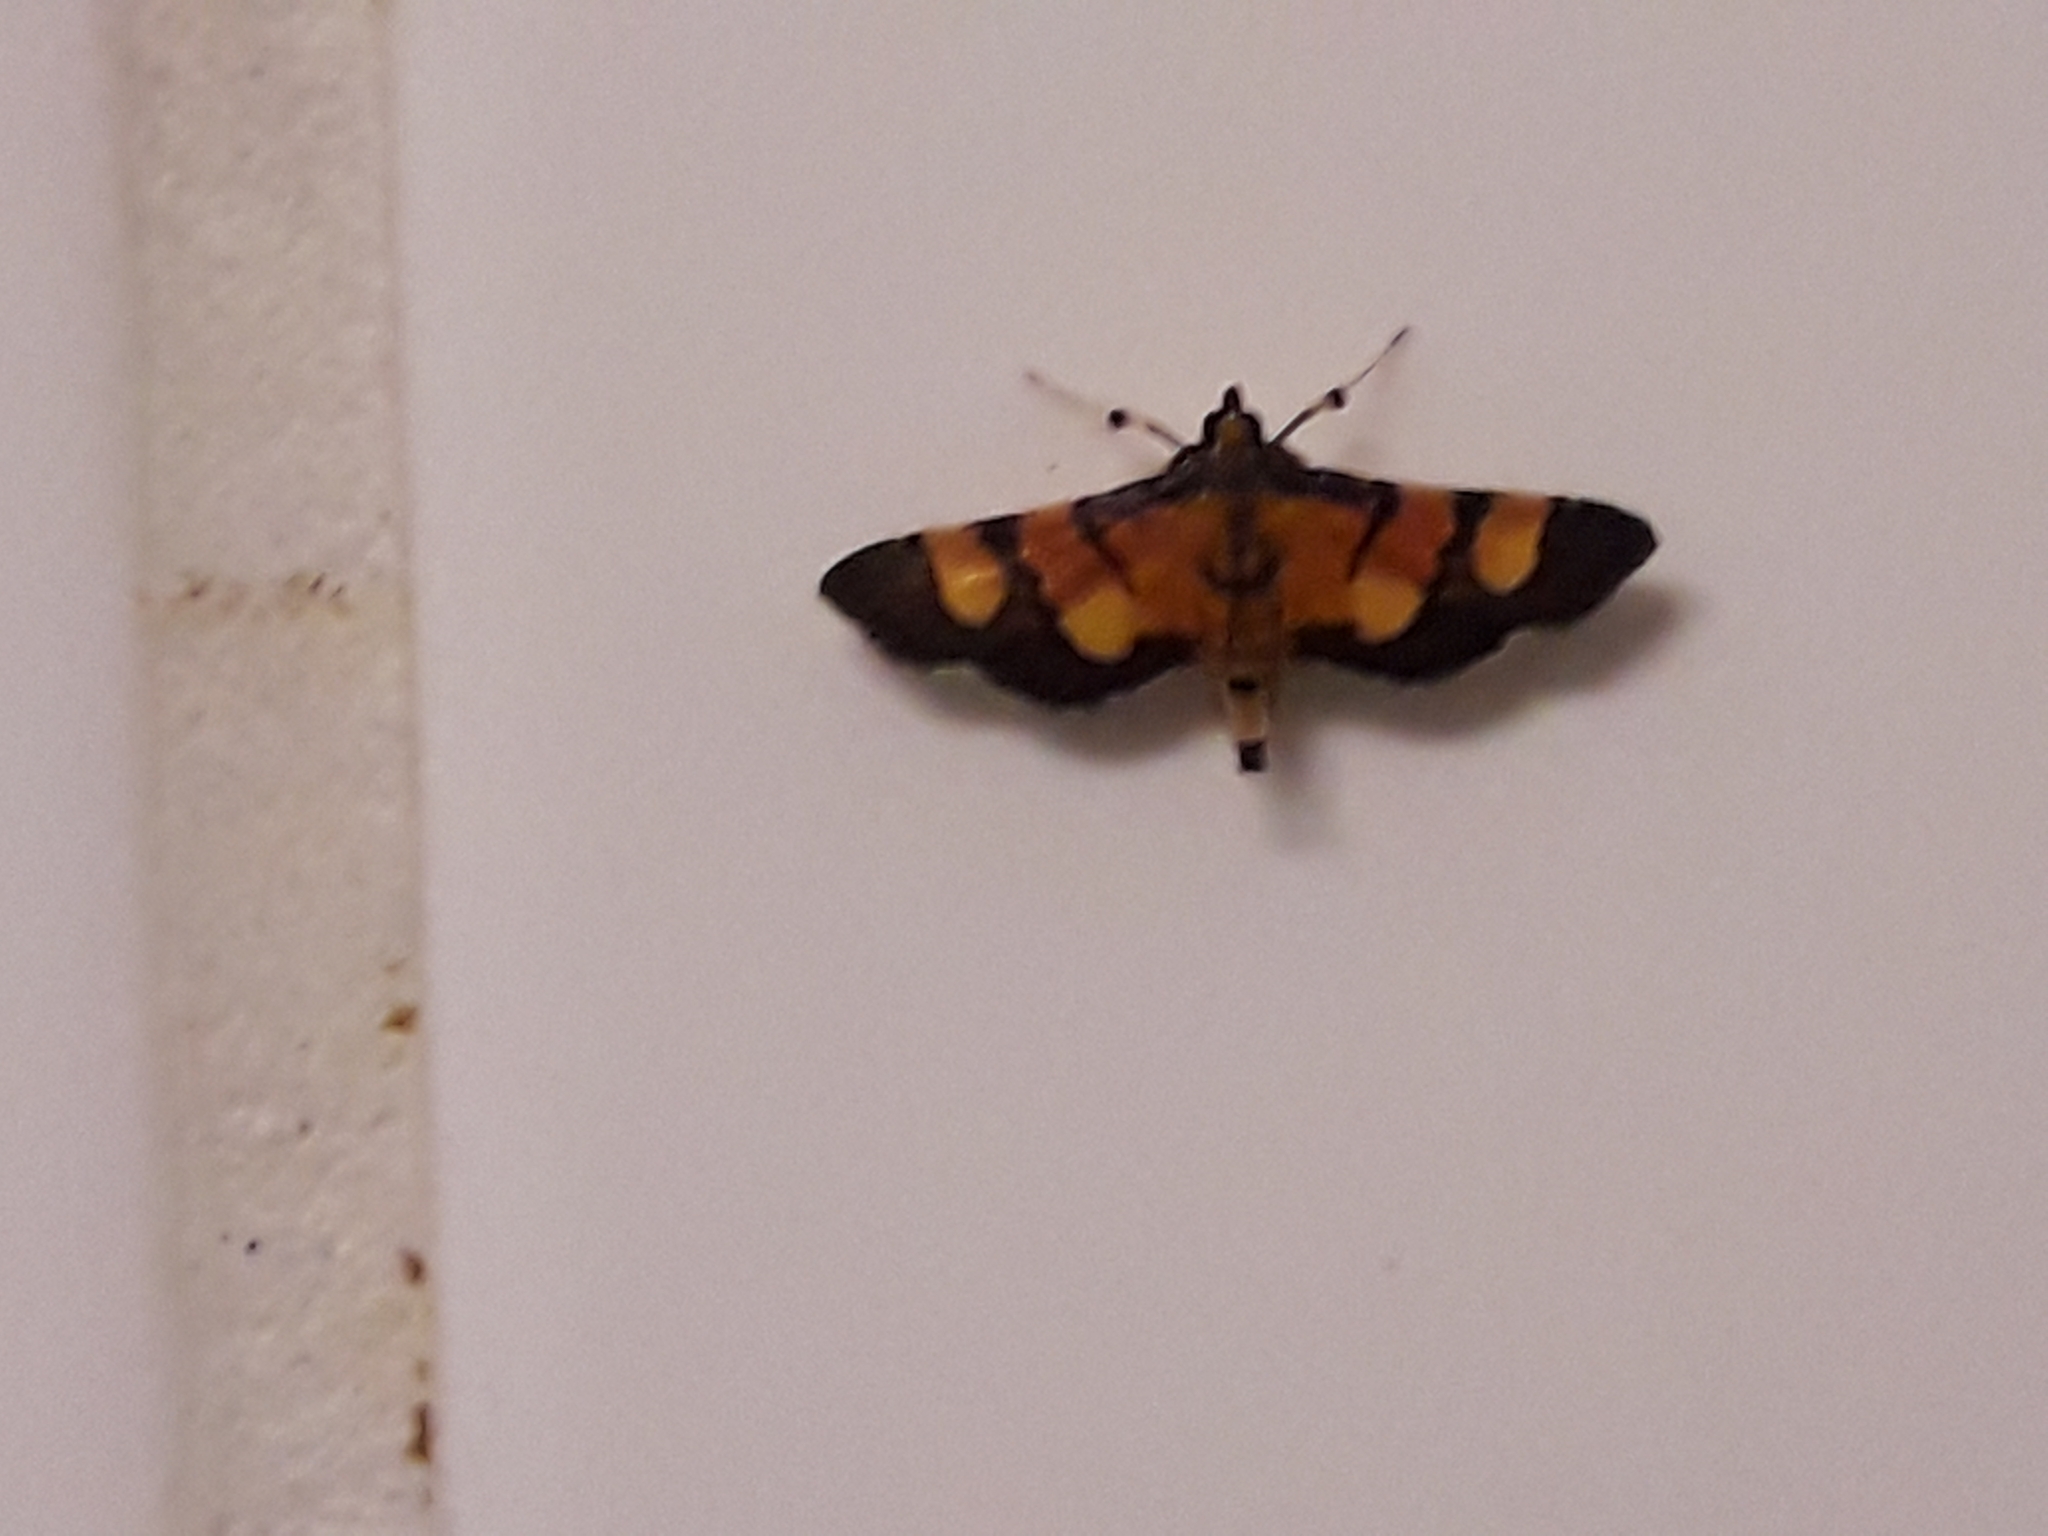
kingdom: Animalia
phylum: Arthropoda
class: Insecta
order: Lepidoptera
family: Crambidae
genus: Aethaloessa
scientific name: Aethaloessa floridalis
